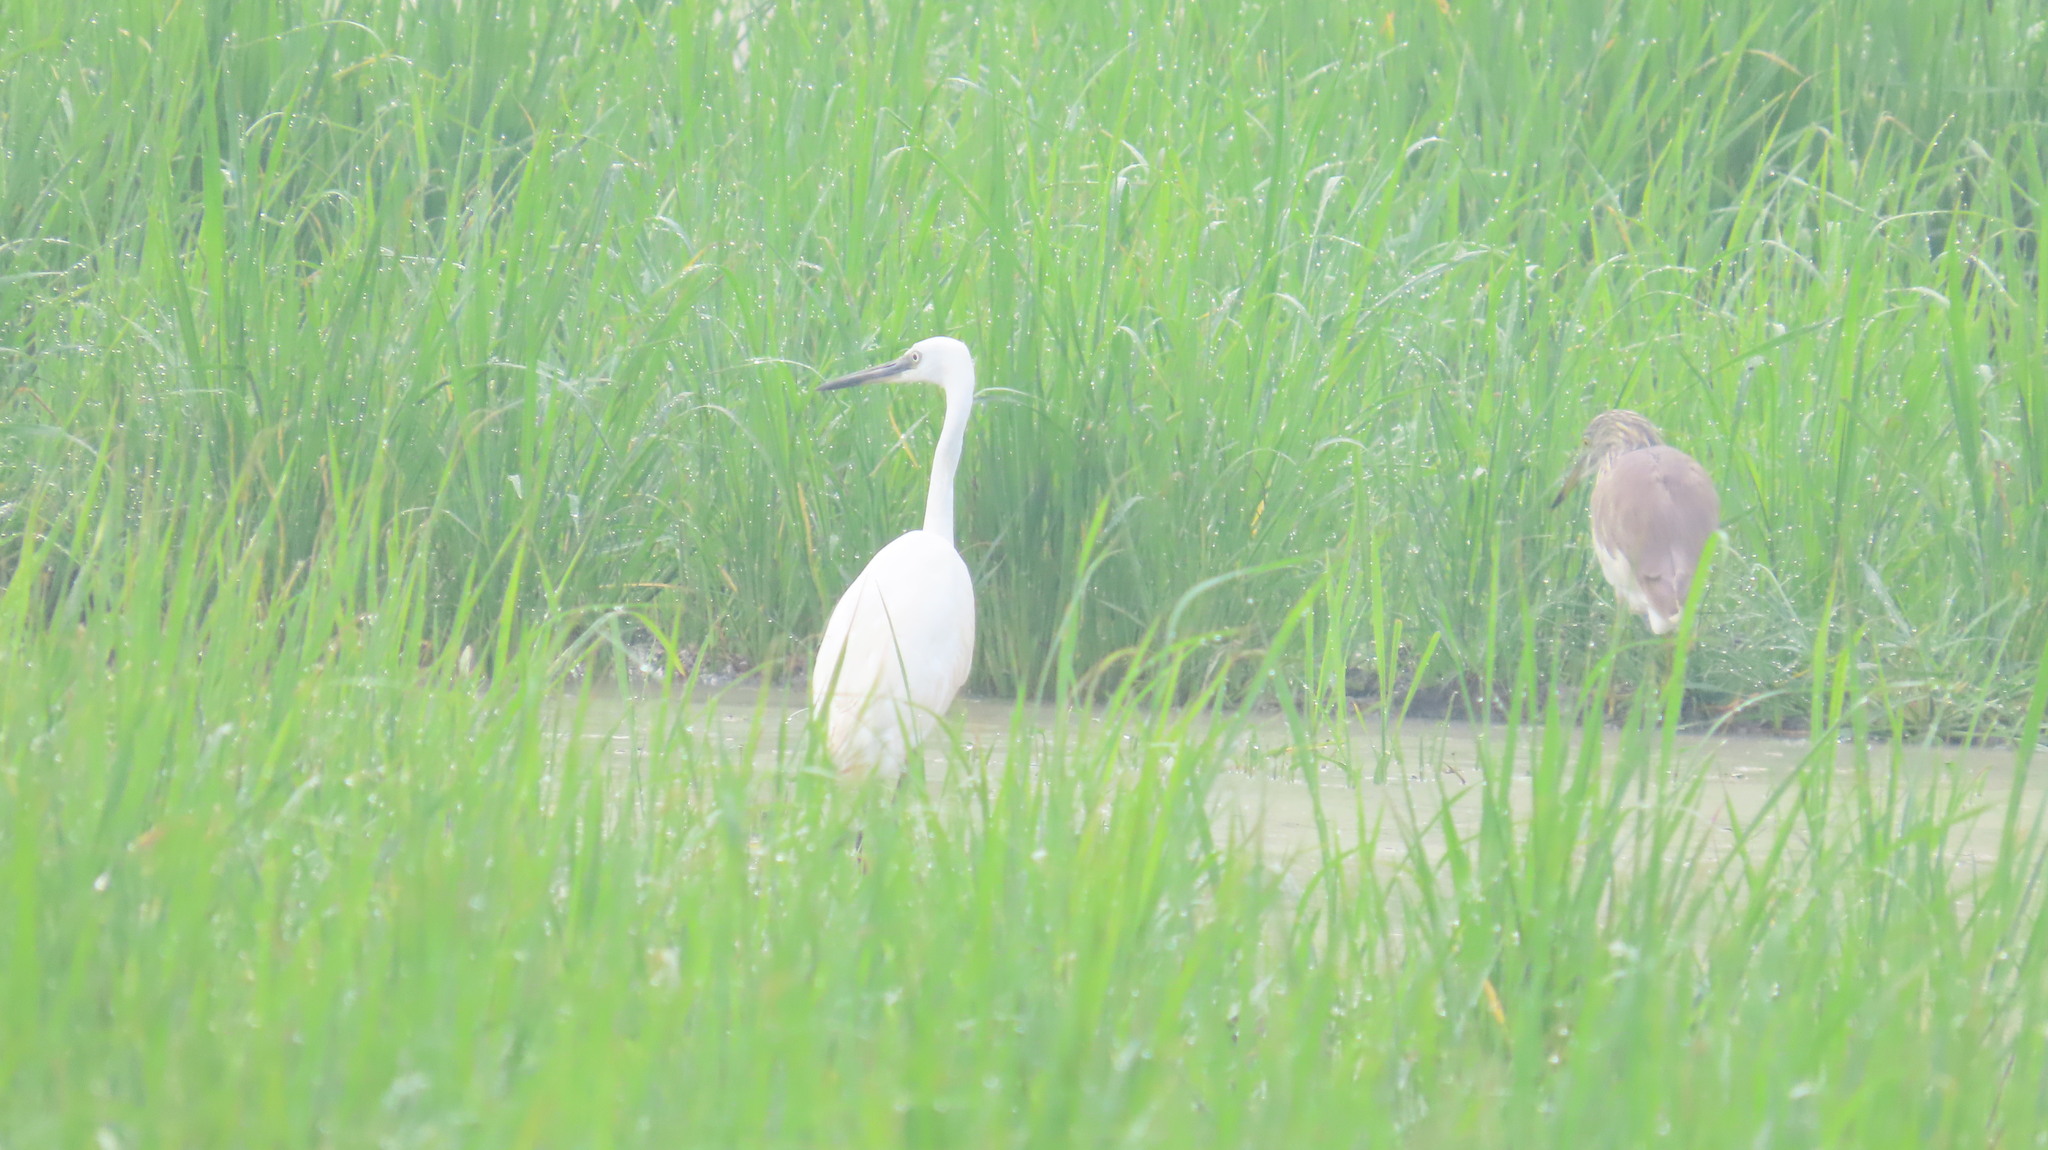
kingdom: Animalia
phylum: Chordata
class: Aves
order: Pelecaniformes
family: Ardeidae
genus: Ardeola
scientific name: Ardeola grayii
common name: Indian pond heron
